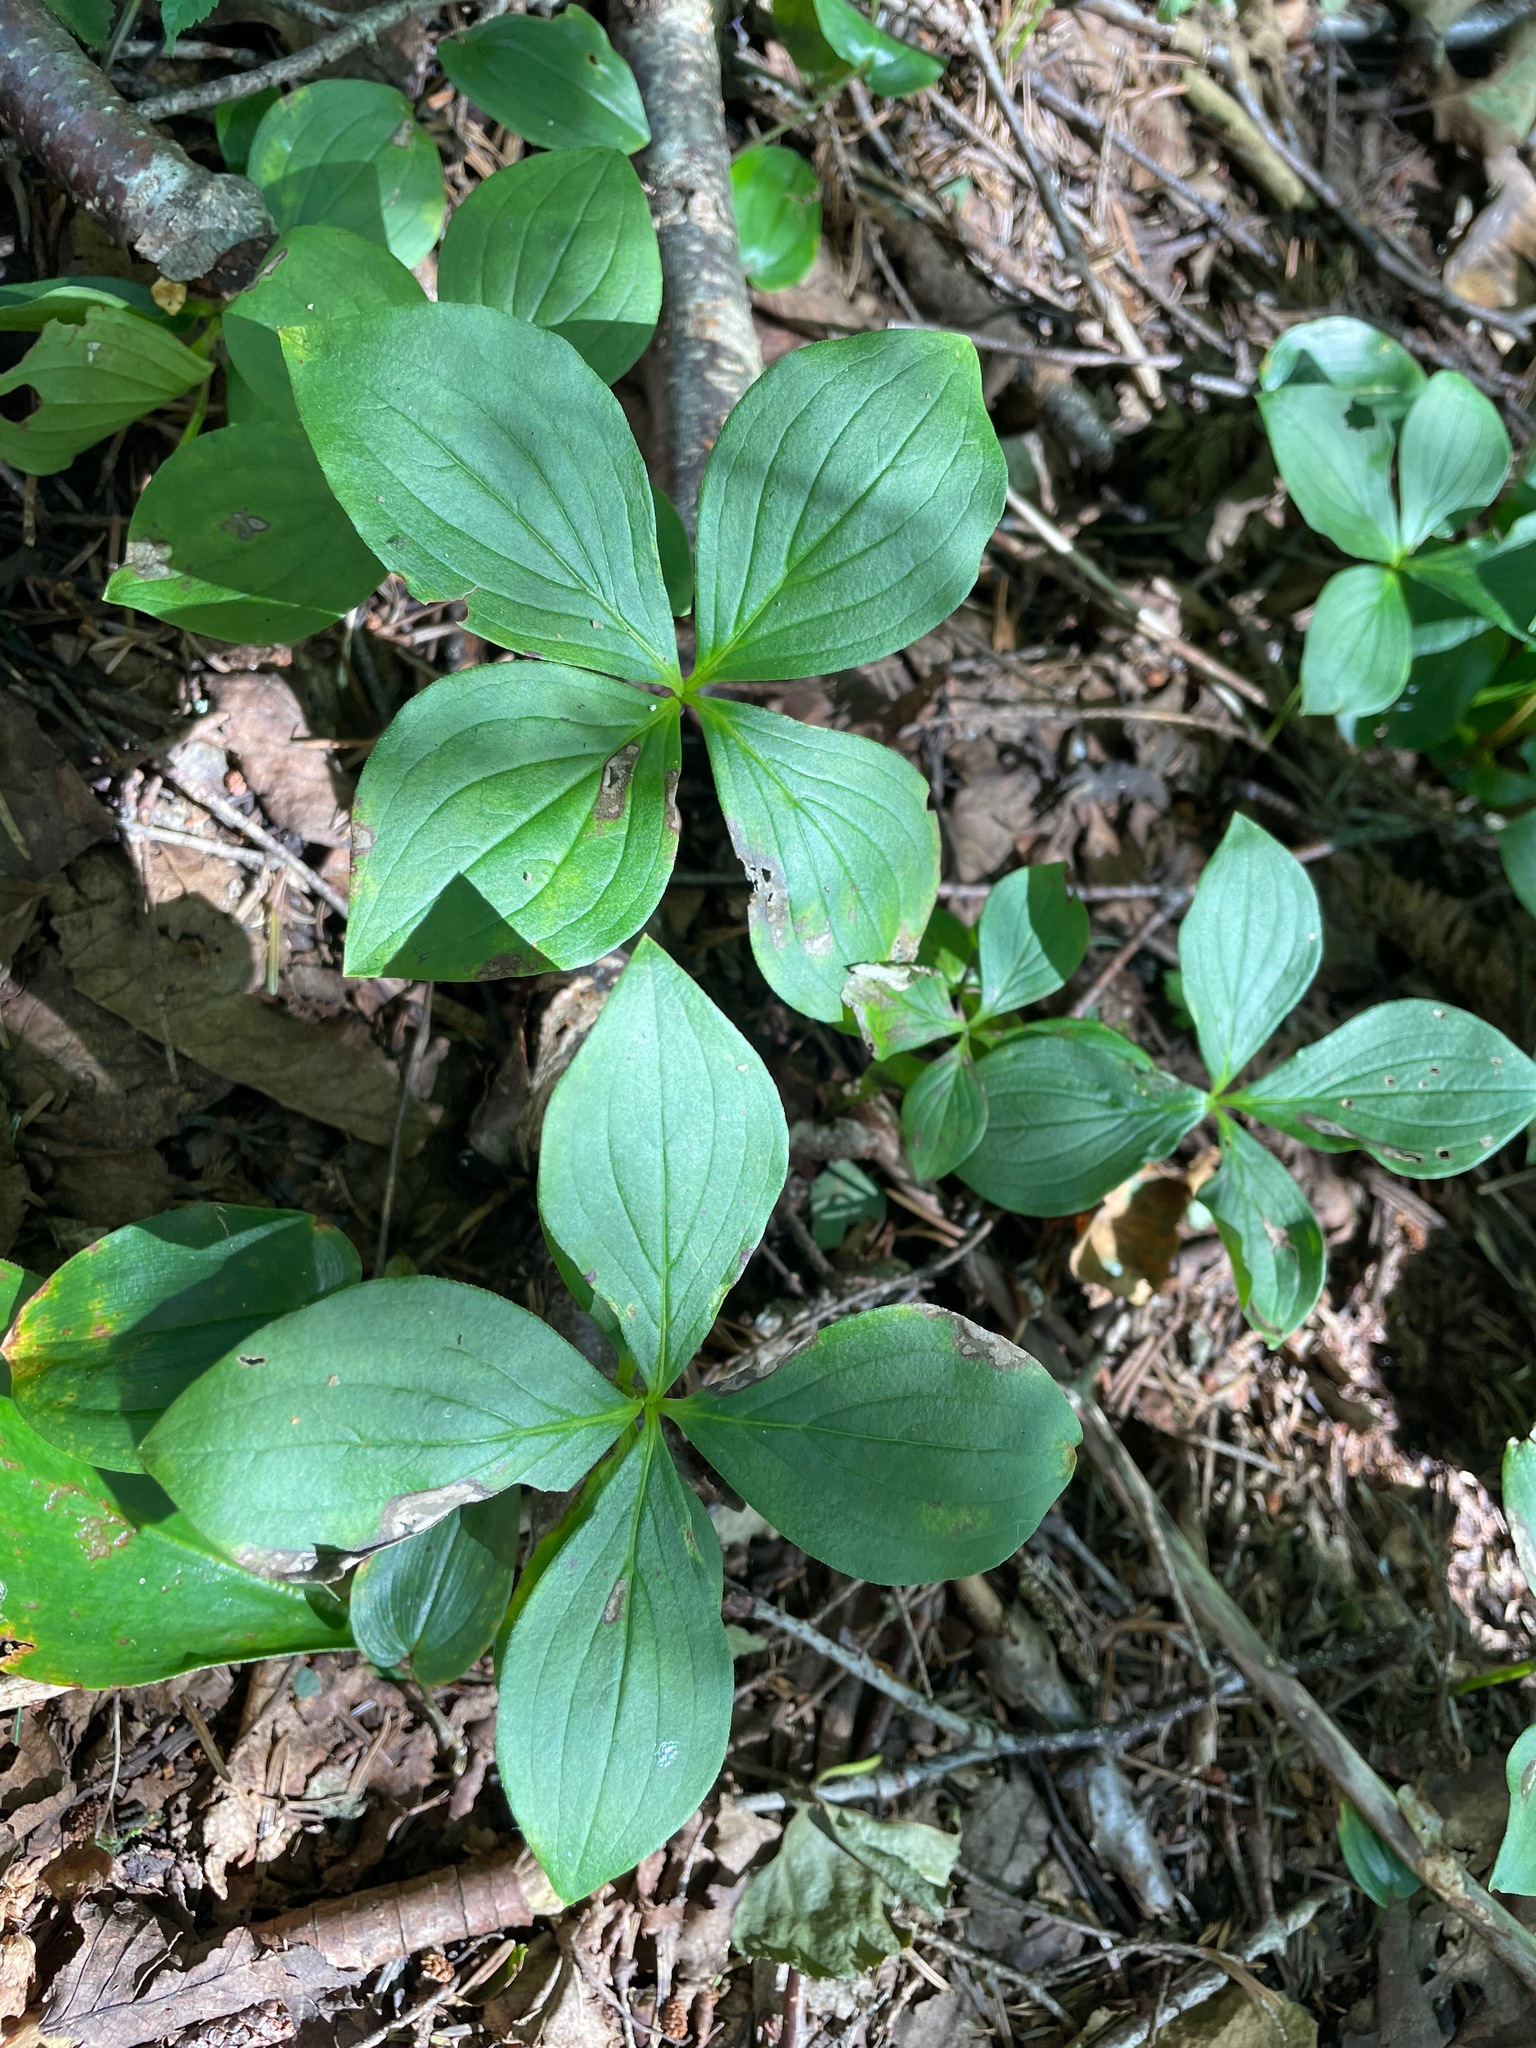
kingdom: Plantae
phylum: Tracheophyta
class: Magnoliopsida
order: Cornales
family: Cornaceae
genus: Cornus
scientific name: Cornus canadensis
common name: Creeping dogwood
